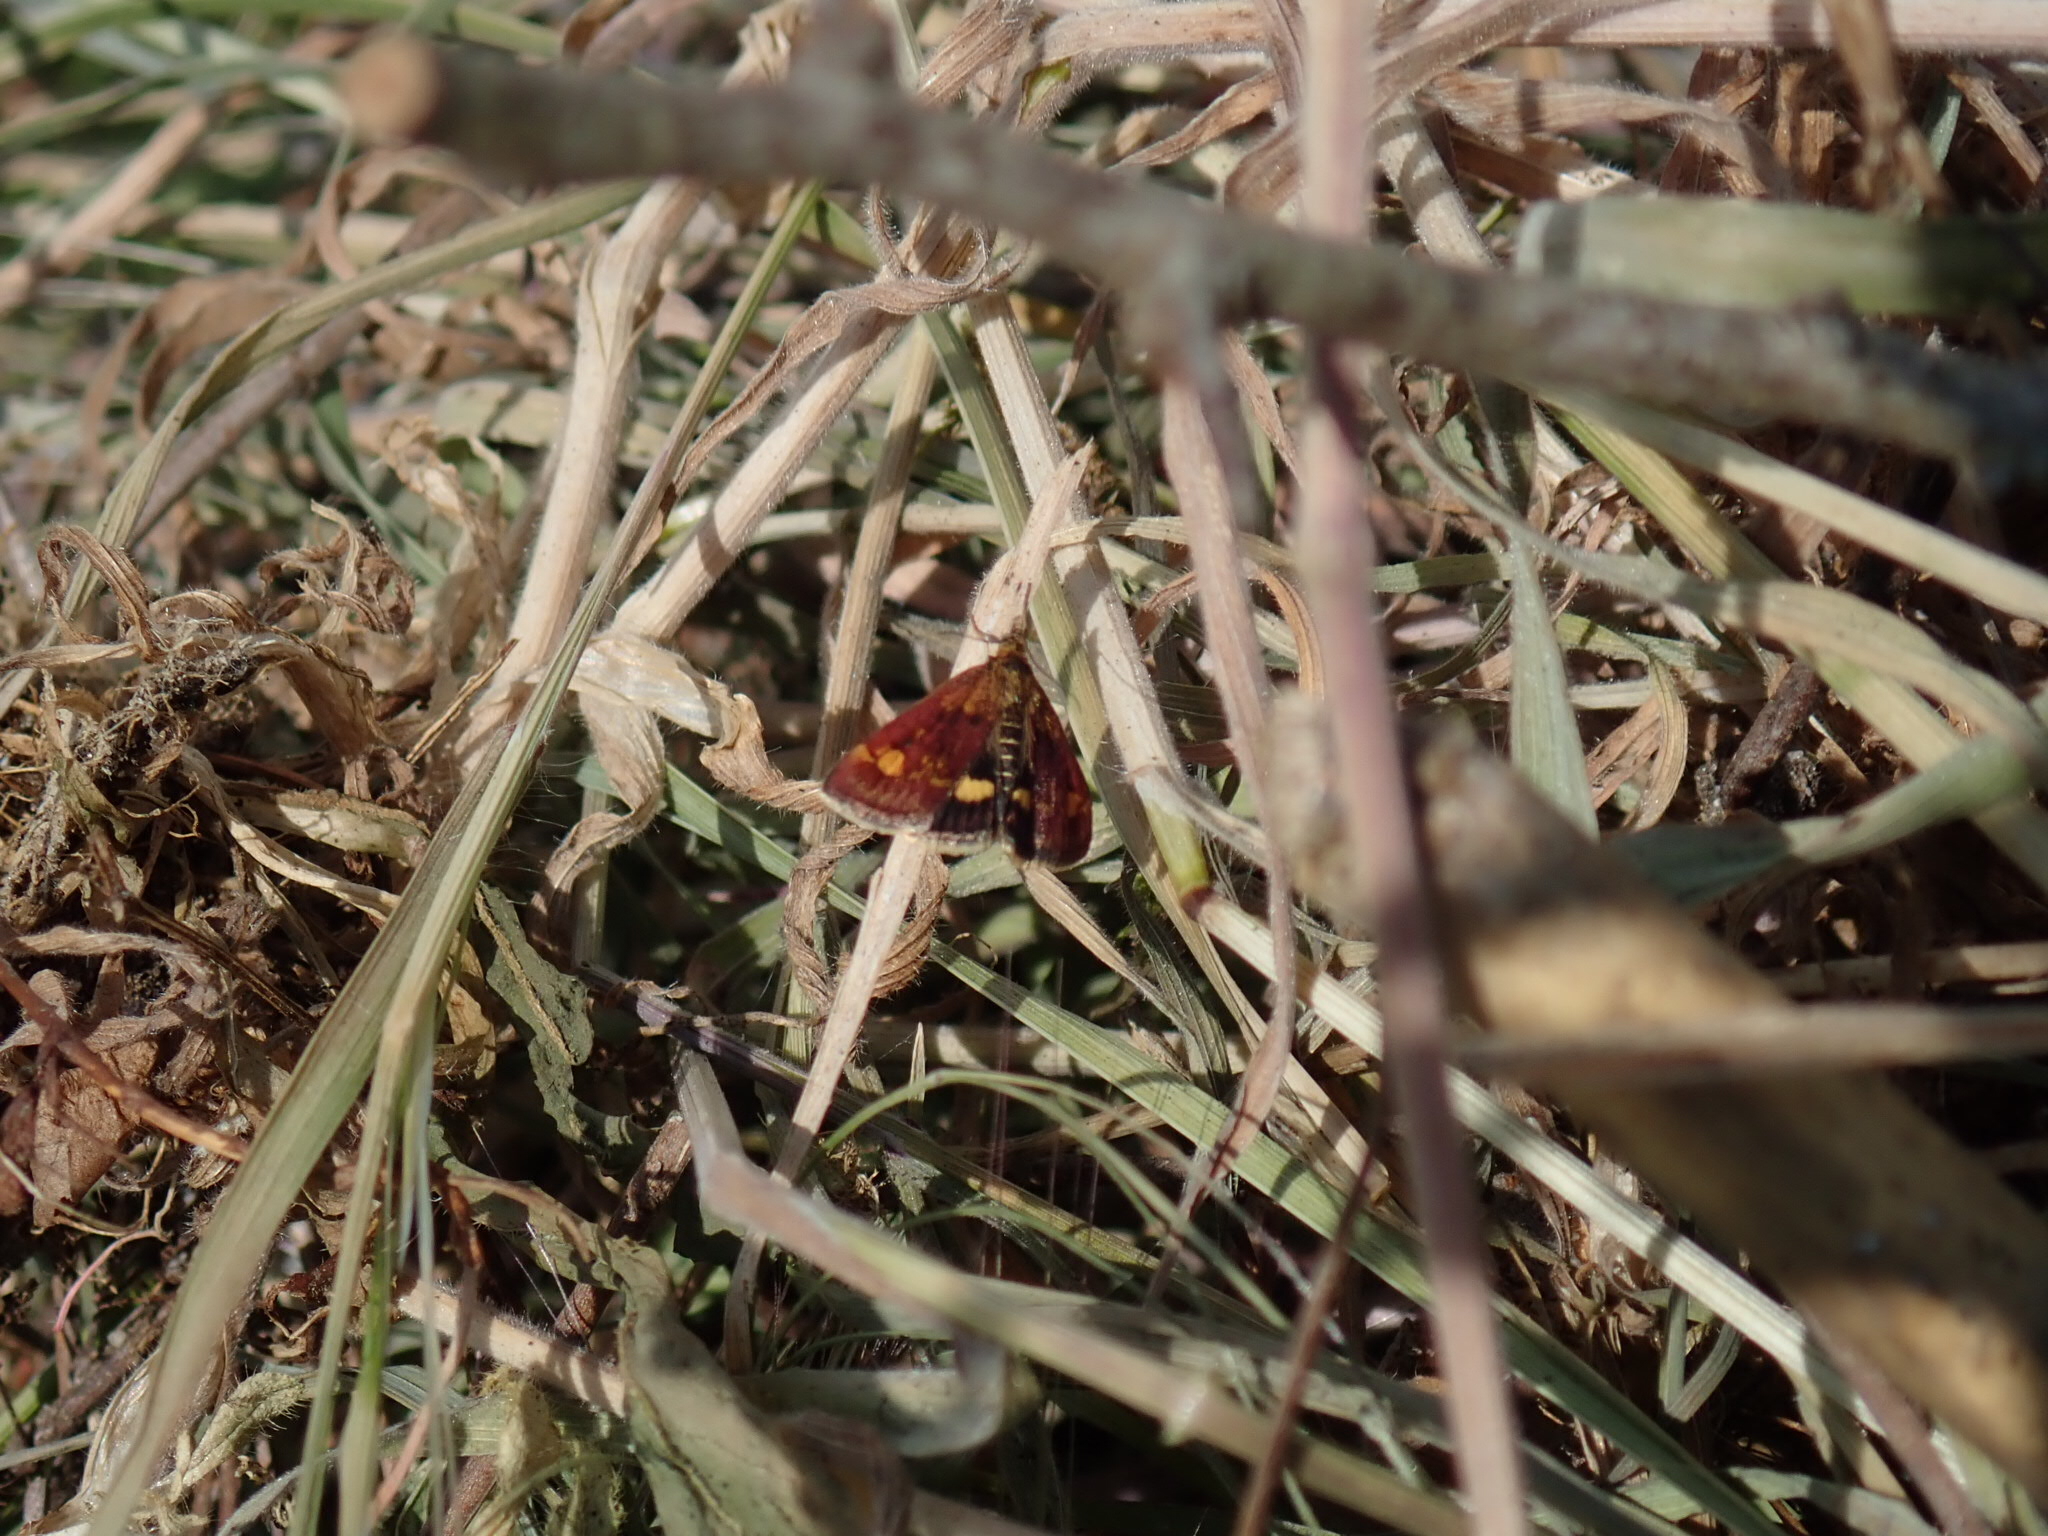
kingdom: Animalia
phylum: Arthropoda
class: Insecta
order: Lepidoptera
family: Crambidae
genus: Pyrausta
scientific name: Pyrausta aurata
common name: Small purple & gold
